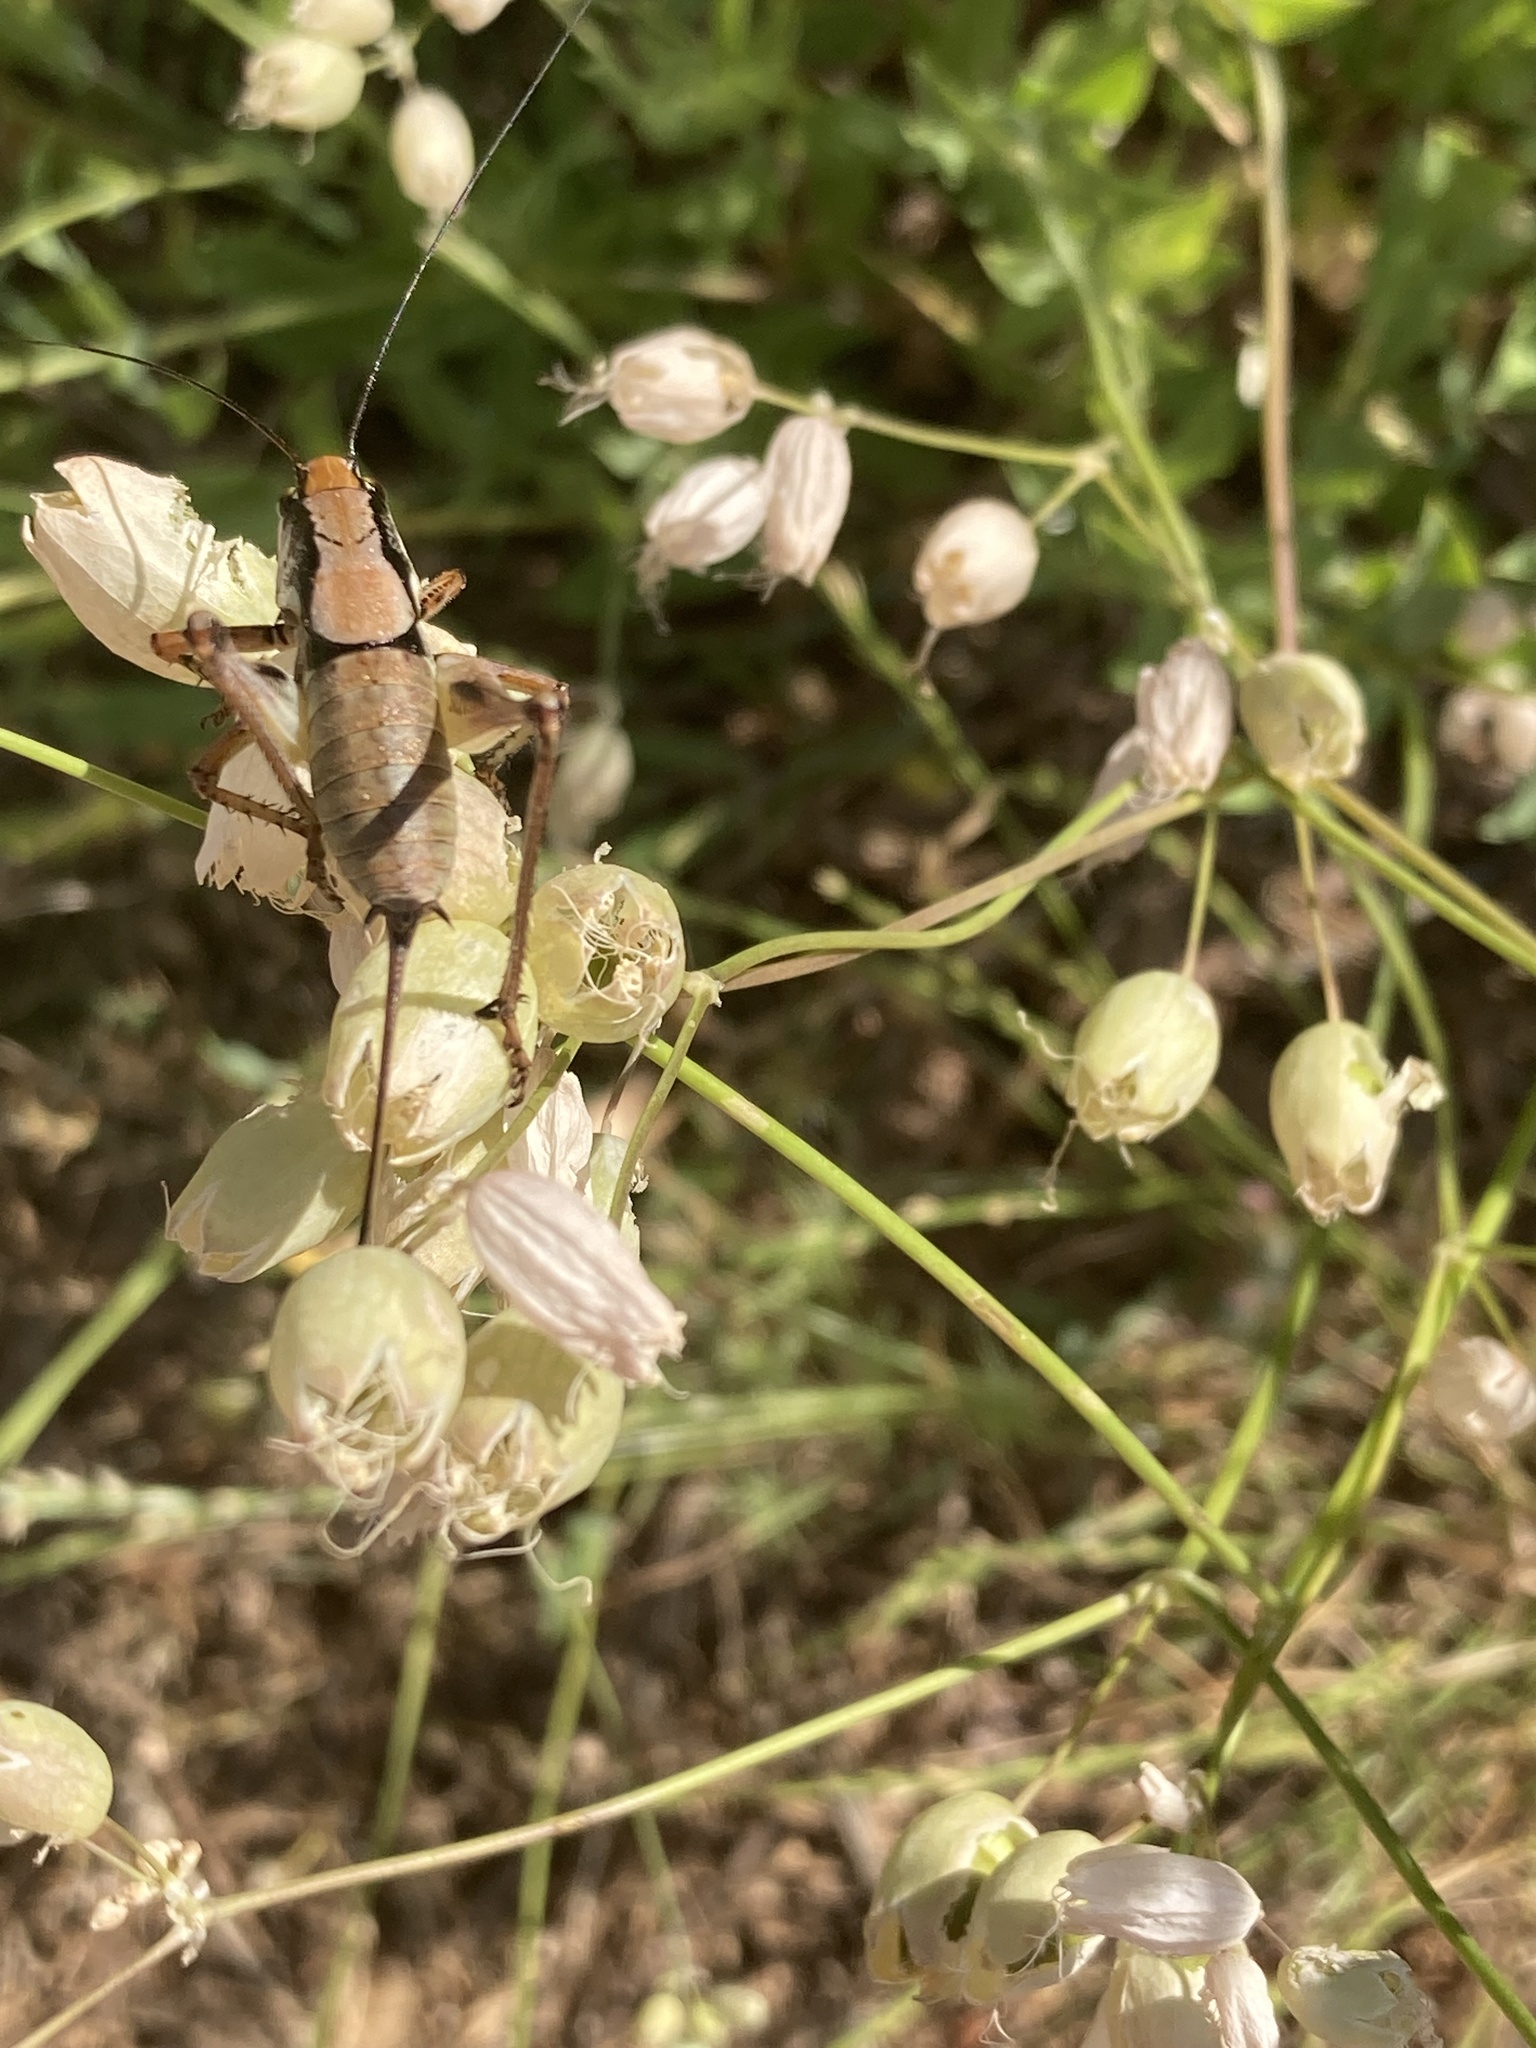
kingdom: Animalia
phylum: Arthropoda
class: Insecta
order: Orthoptera
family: Tettigoniidae
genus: Eupholidoptera
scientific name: Eupholidoptera schmidti
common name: Schmidt's marbled bush-cricket
